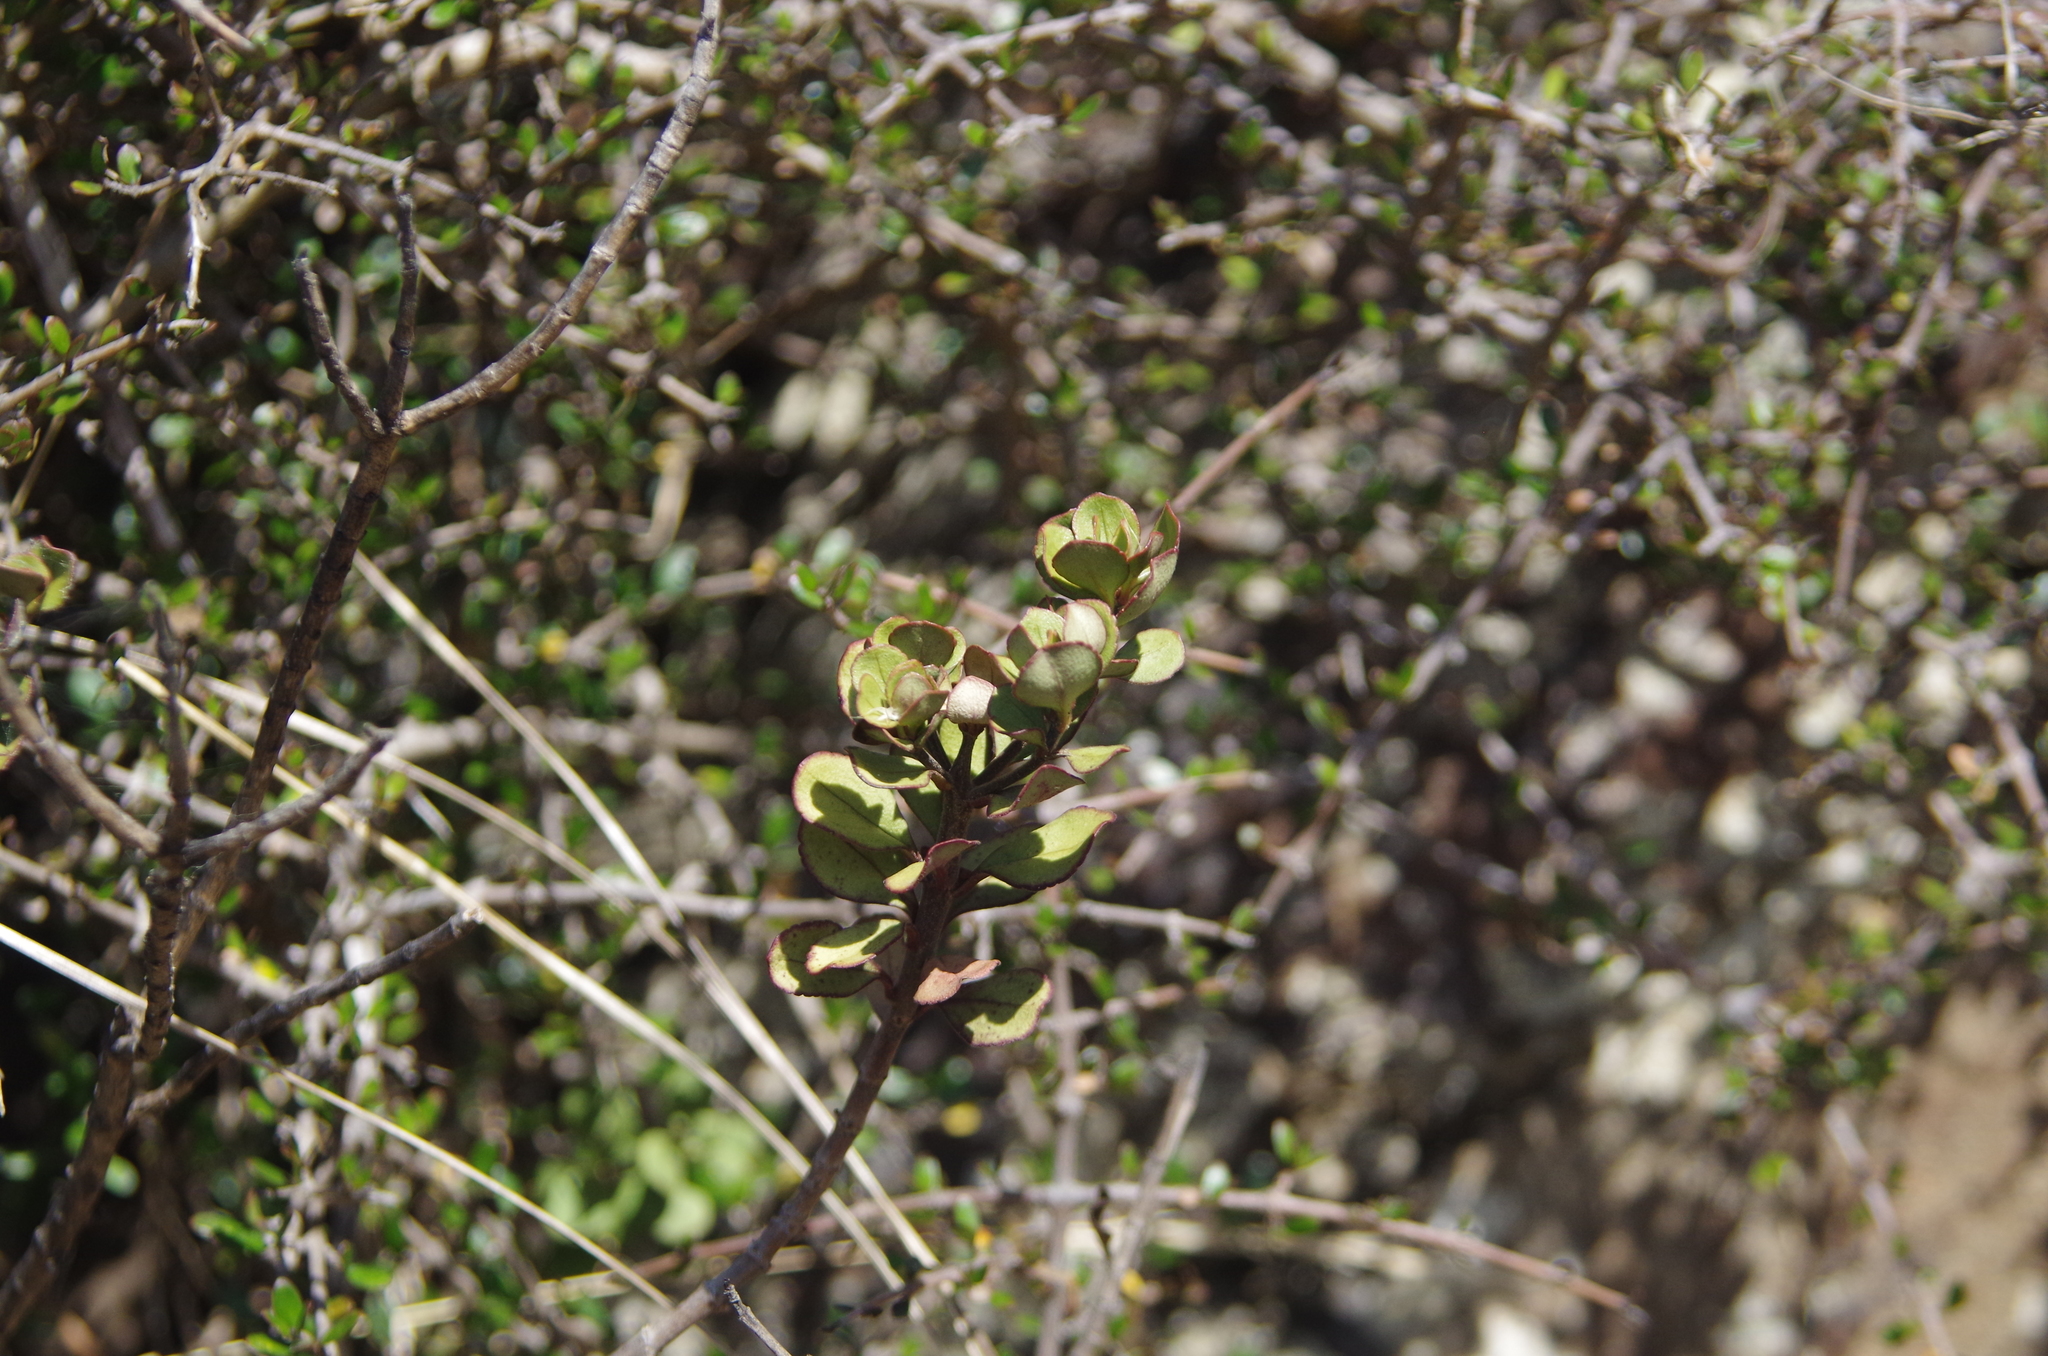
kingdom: Plantae
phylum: Tracheophyta
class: Magnoliopsida
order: Lamiales
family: Plantaginaceae
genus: Veronica
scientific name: Veronica lavaudiana
